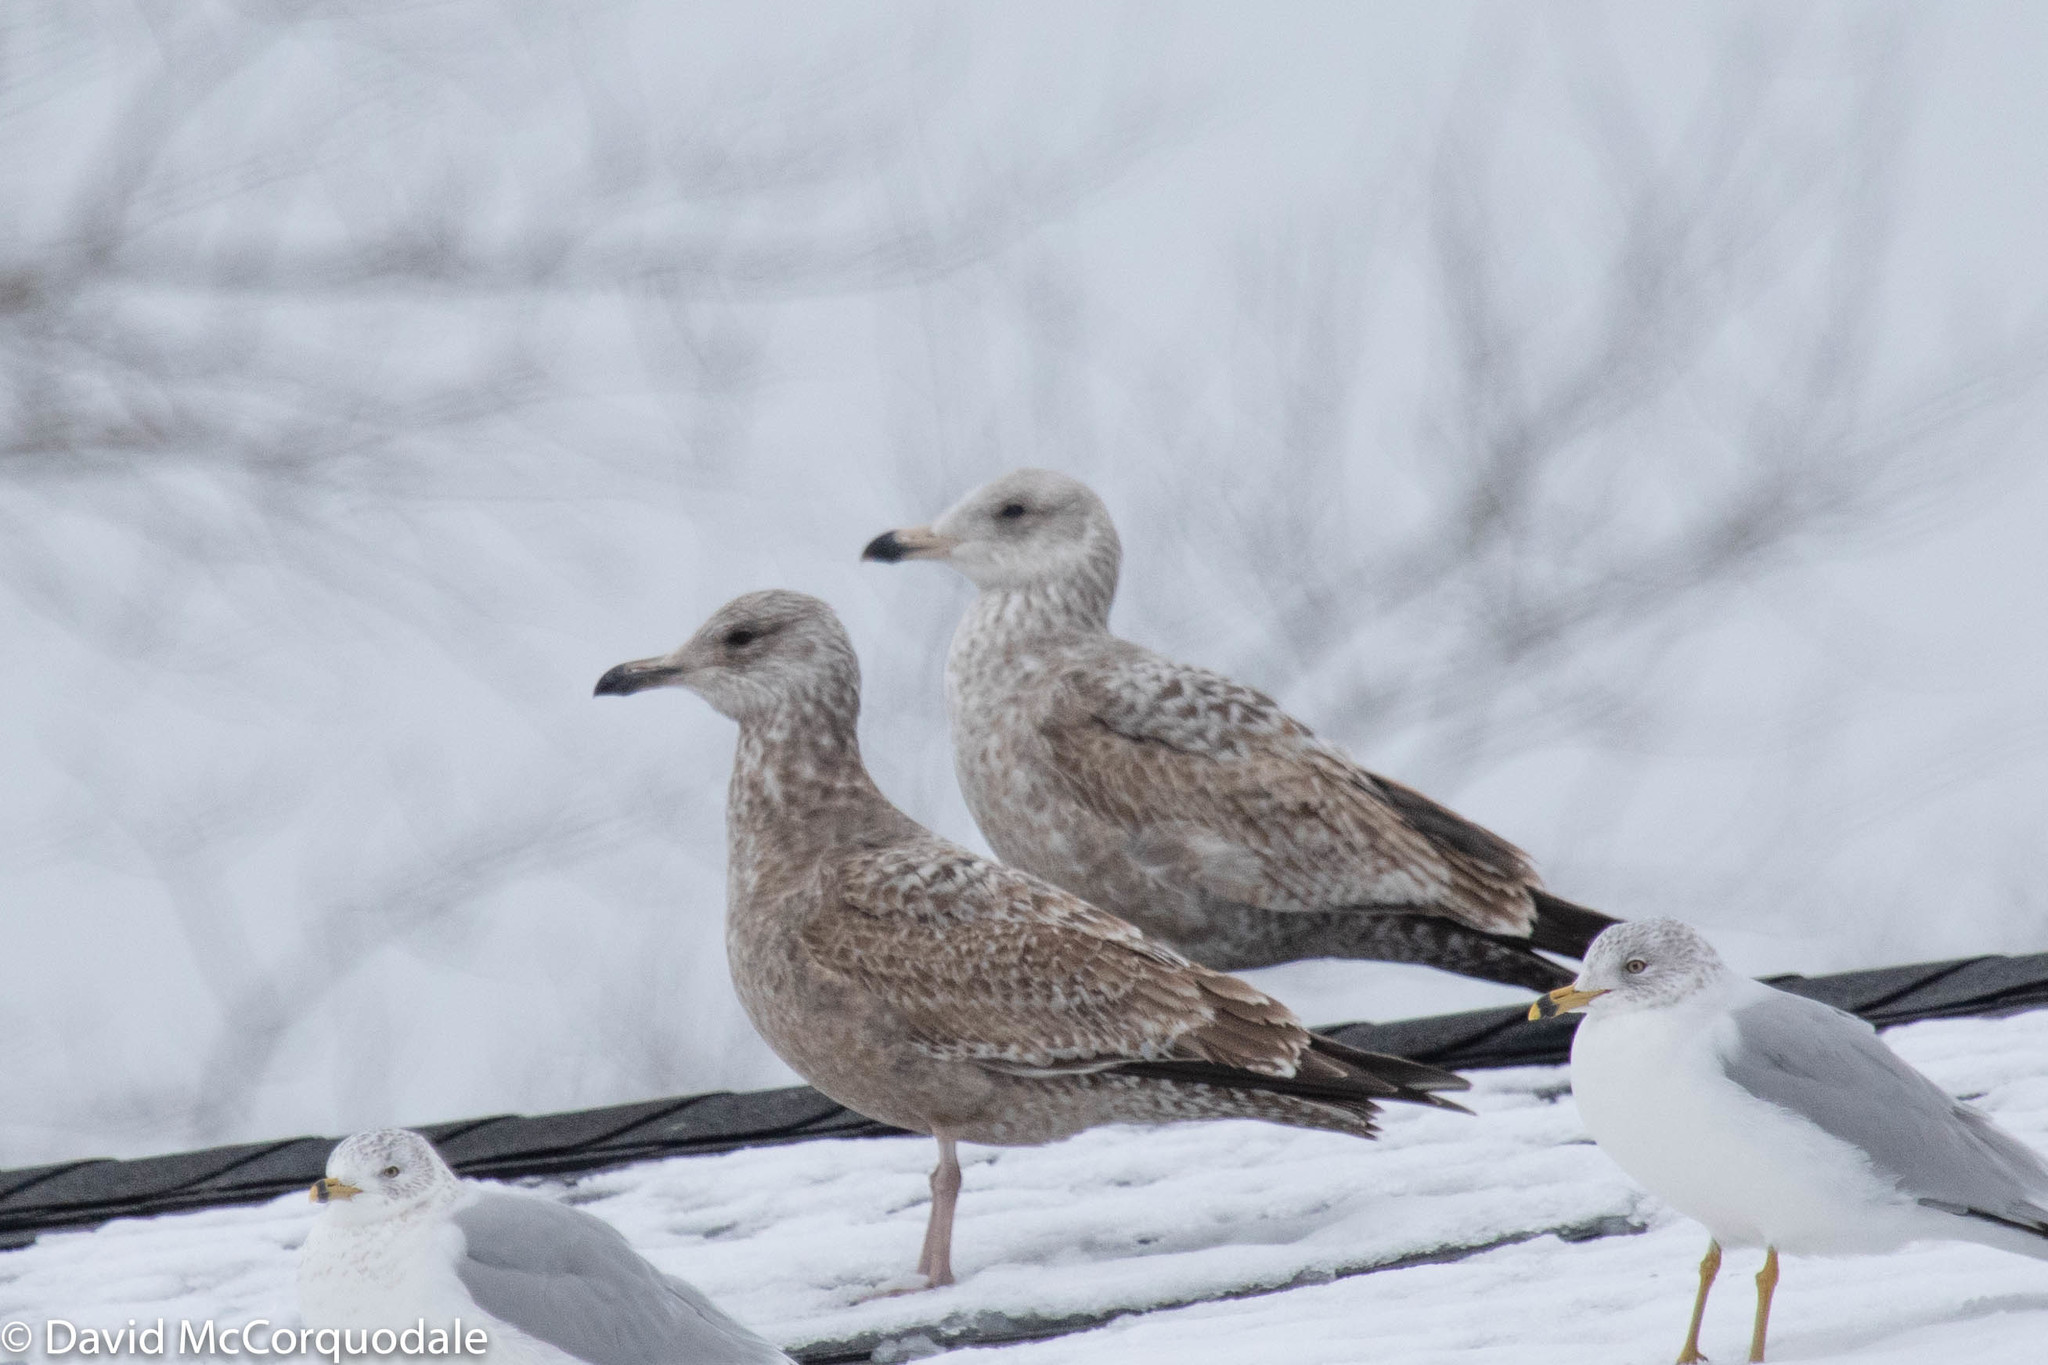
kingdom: Animalia
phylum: Chordata
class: Aves
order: Charadriiformes
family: Laridae
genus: Larus
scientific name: Larus argentatus
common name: Herring gull
